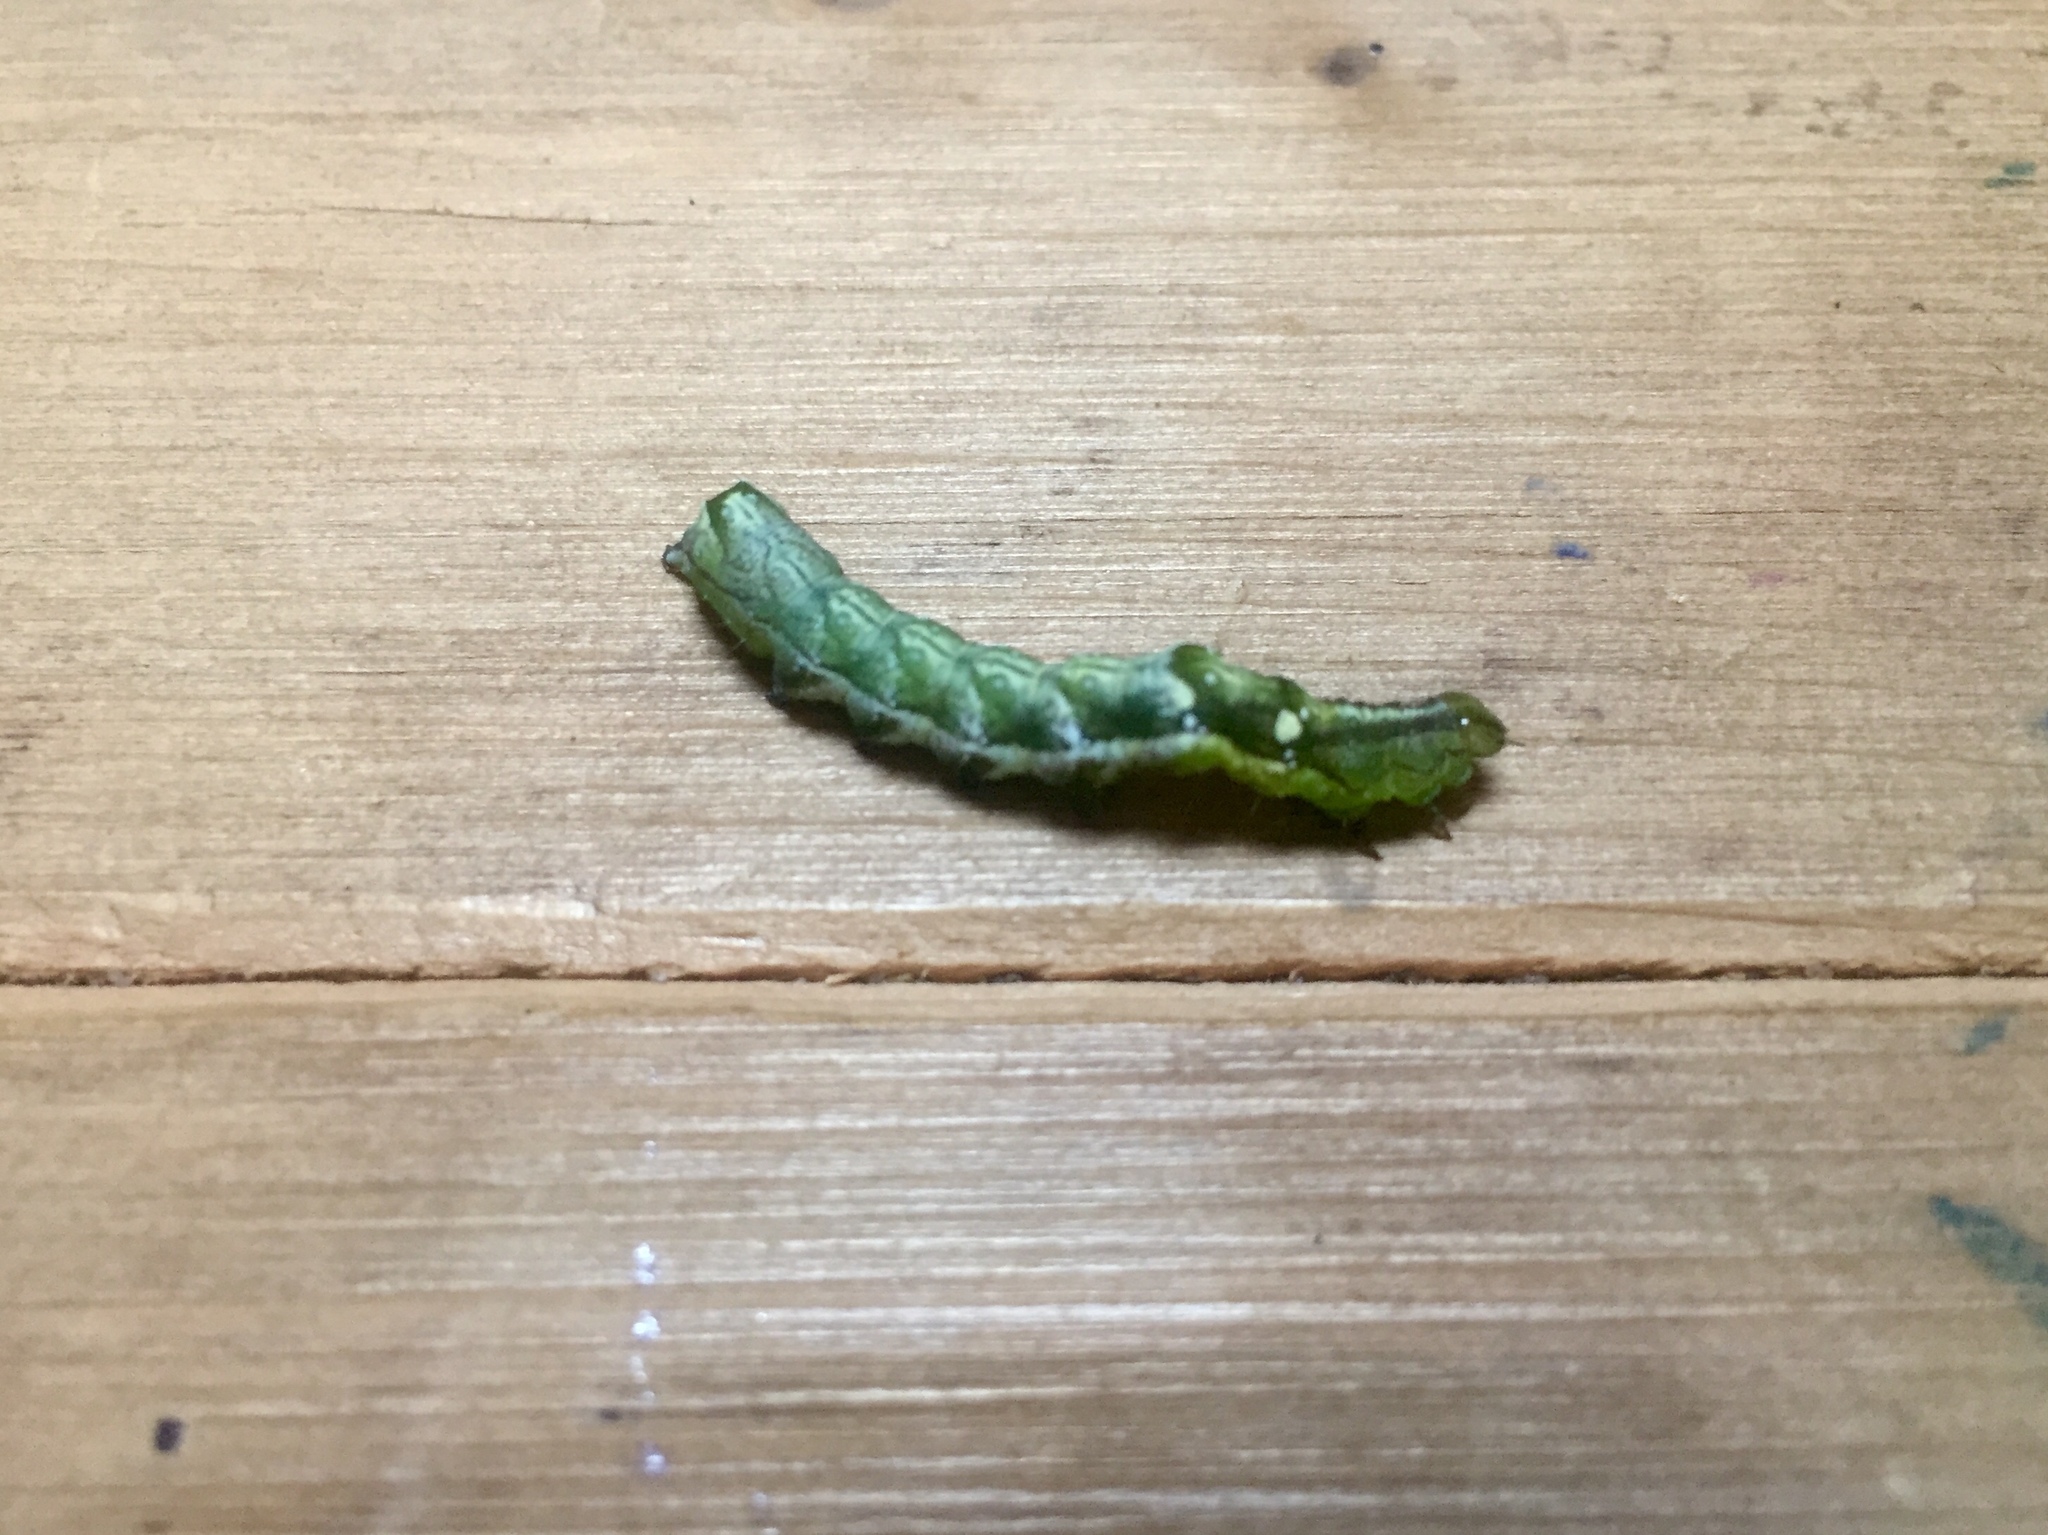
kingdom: Animalia
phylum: Arthropoda
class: Insecta
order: Lepidoptera
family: Noctuidae
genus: Melanchra
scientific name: Melanchra adjuncta
